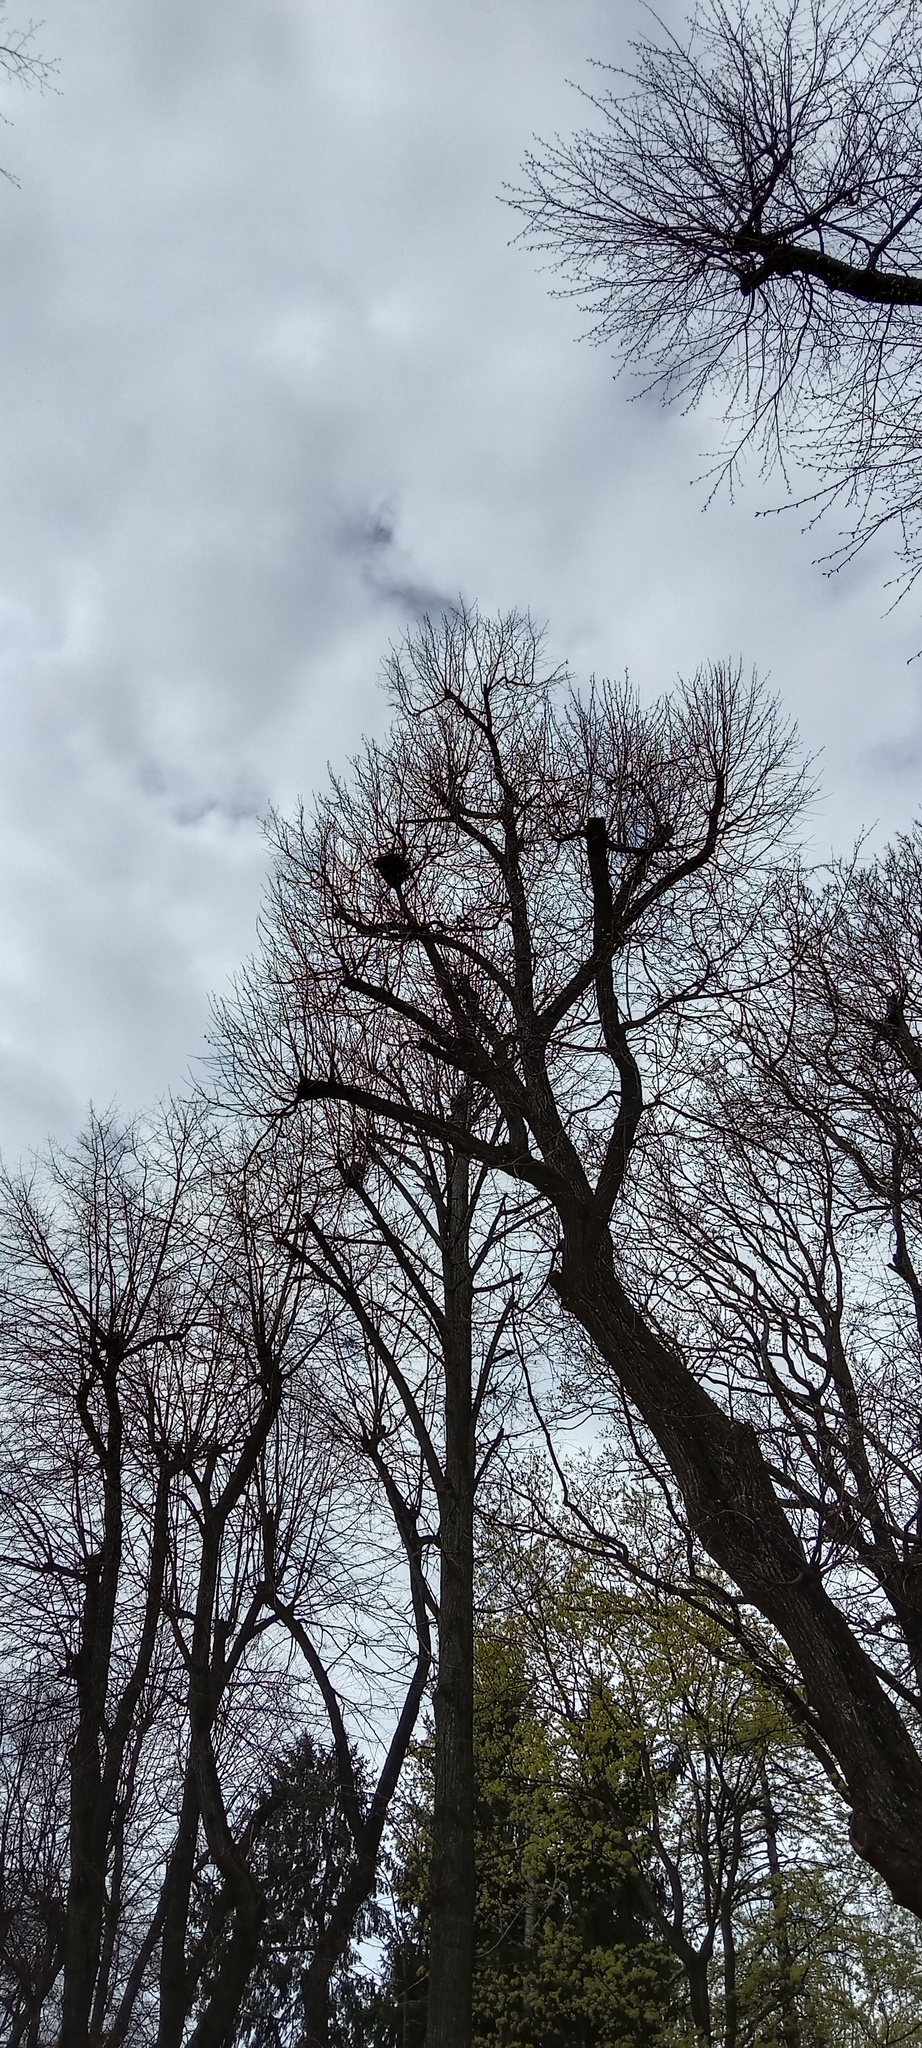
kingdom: Plantae
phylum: Tracheophyta
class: Magnoliopsida
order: Santalales
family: Viscaceae
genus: Viscum
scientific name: Viscum album
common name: Mistletoe
